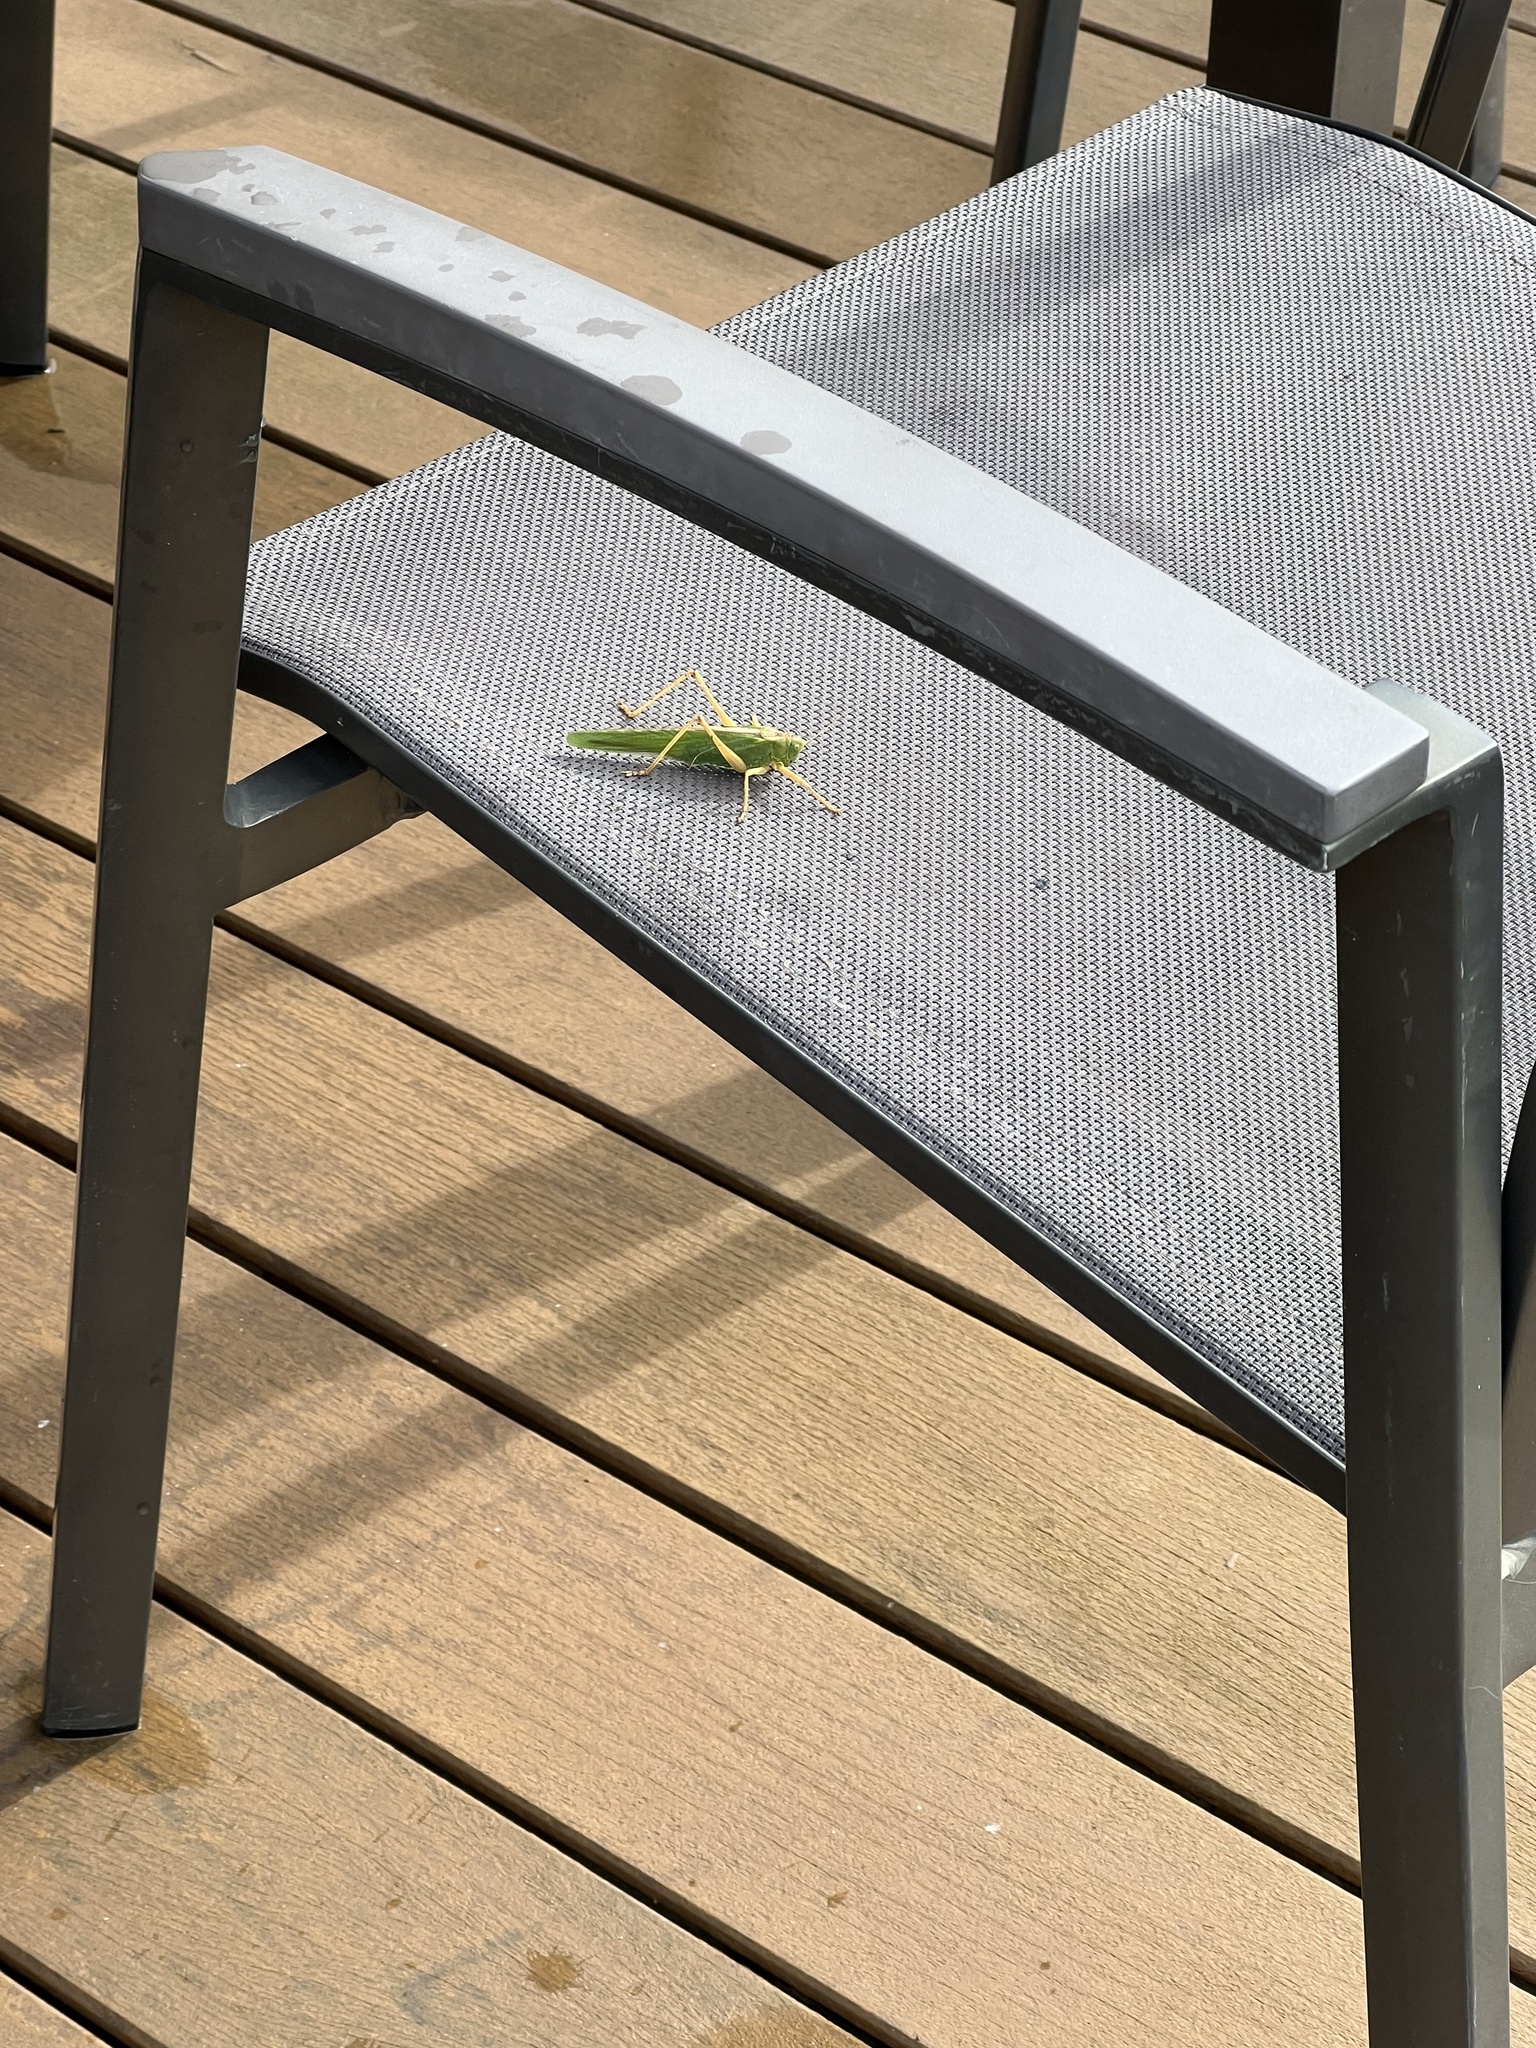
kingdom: Animalia
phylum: Arthropoda
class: Insecta
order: Orthoptera
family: Tettigoniidae
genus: Tettigonia
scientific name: Tettigonia viridissima
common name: Great green bush-cricket
